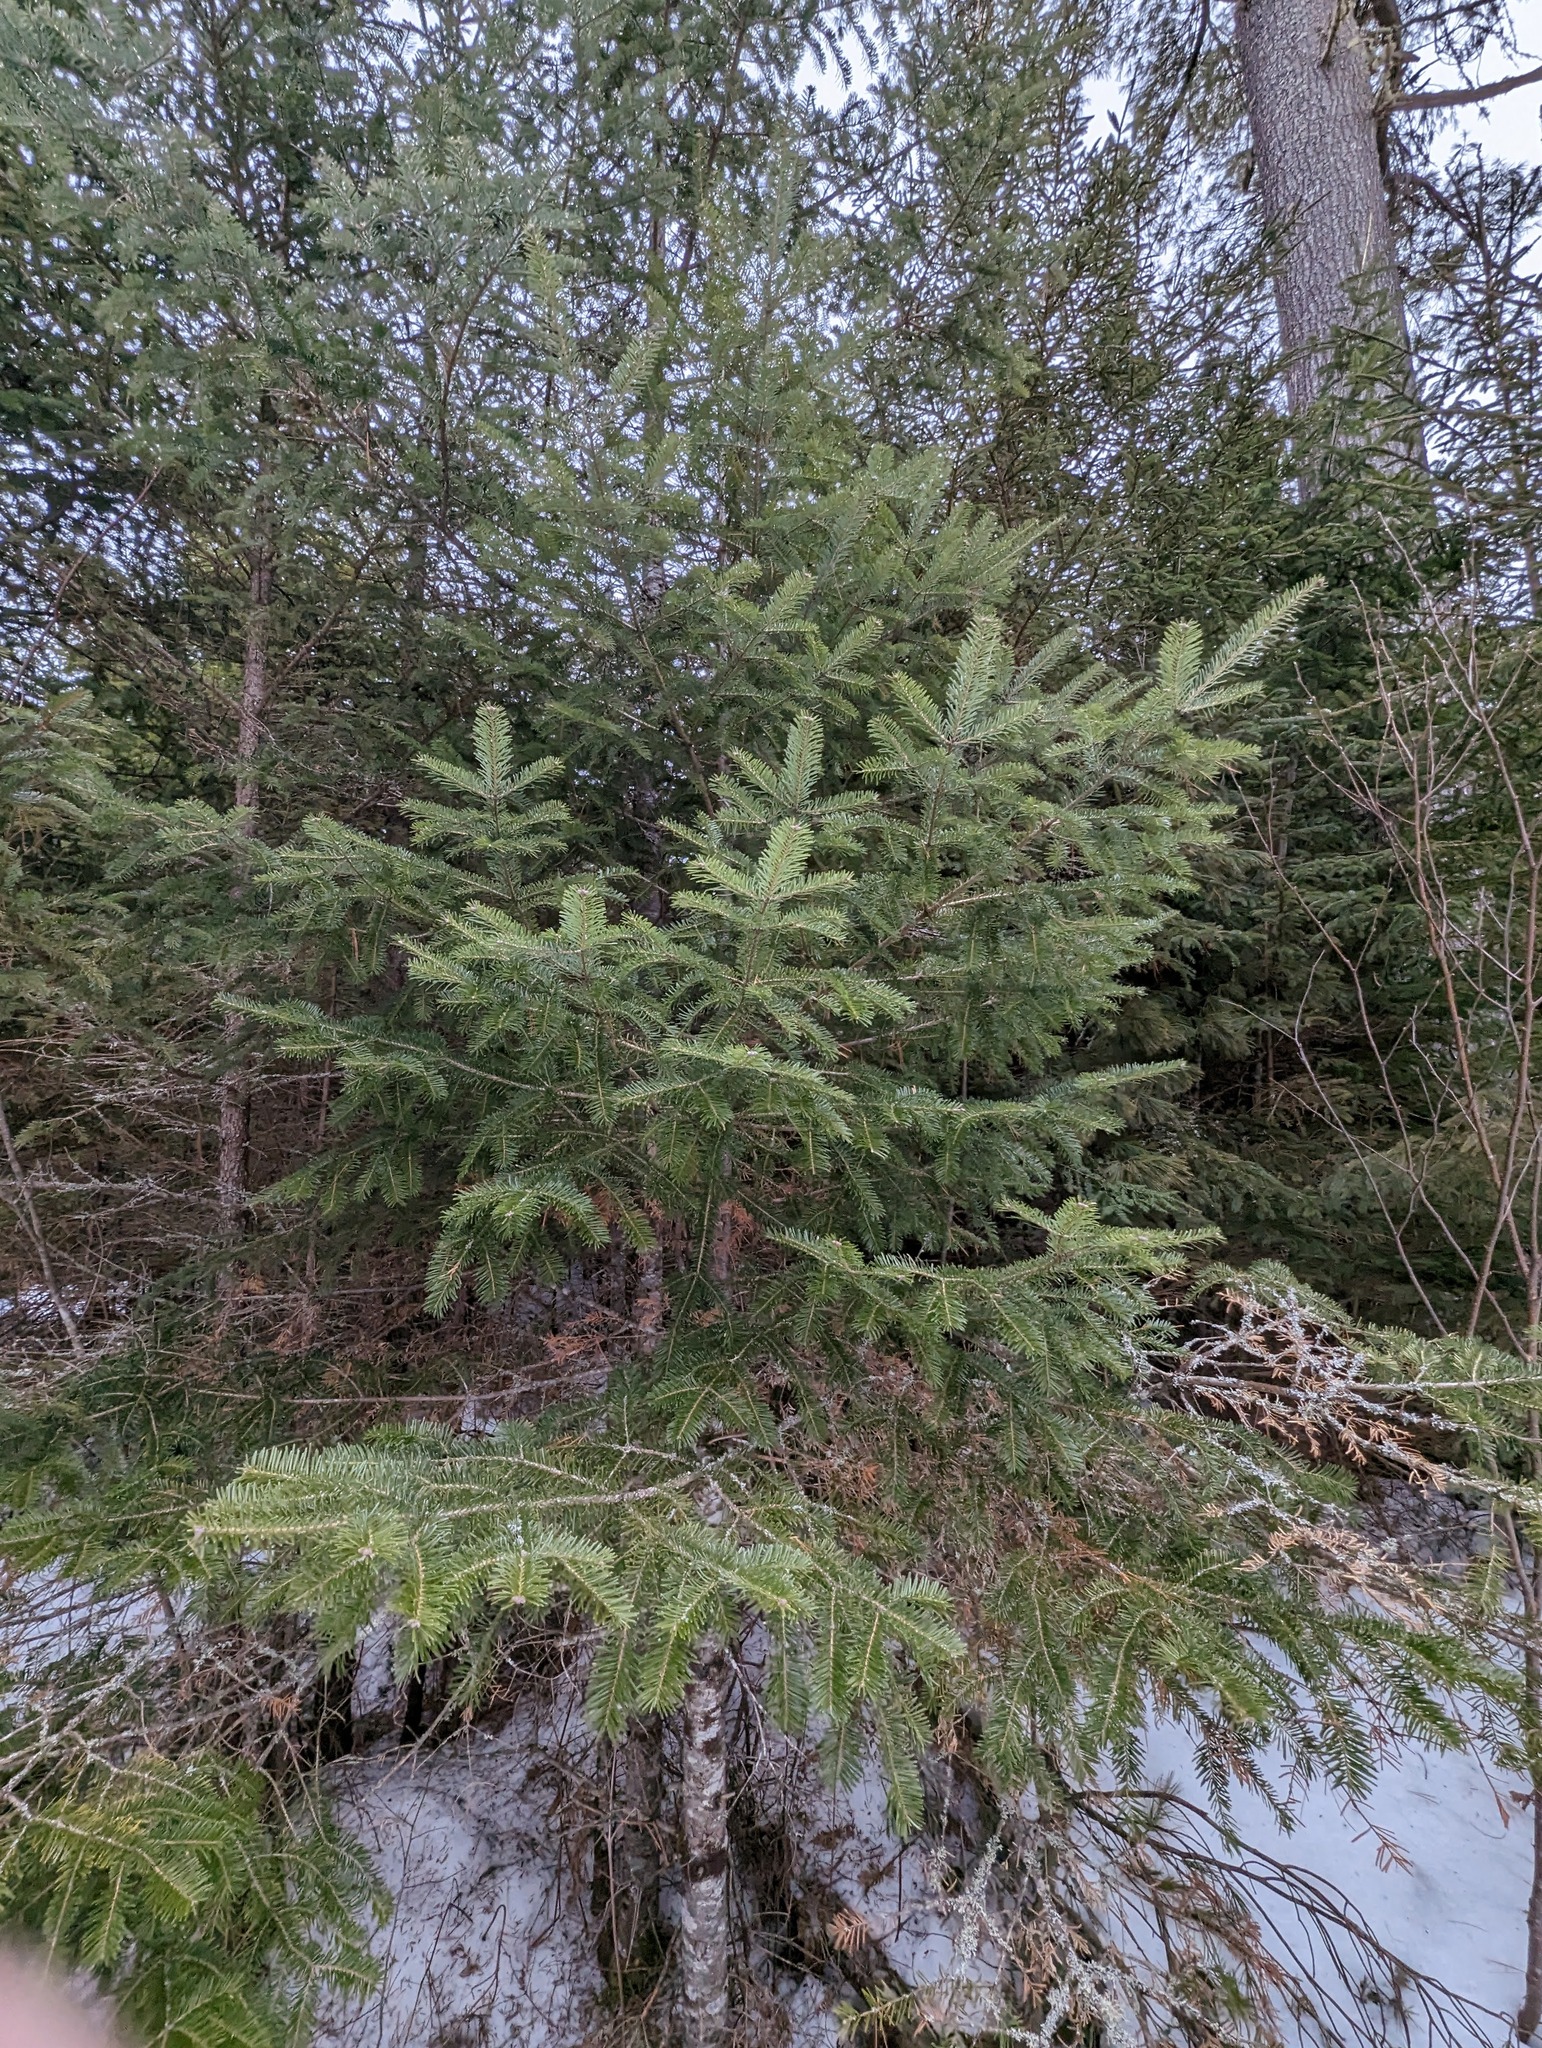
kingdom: Plantae
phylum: Tracheophyta
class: Pinopsida
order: Pinales
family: Pinaceae
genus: Abies
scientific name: Abies balsamea
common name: Balsam fir
